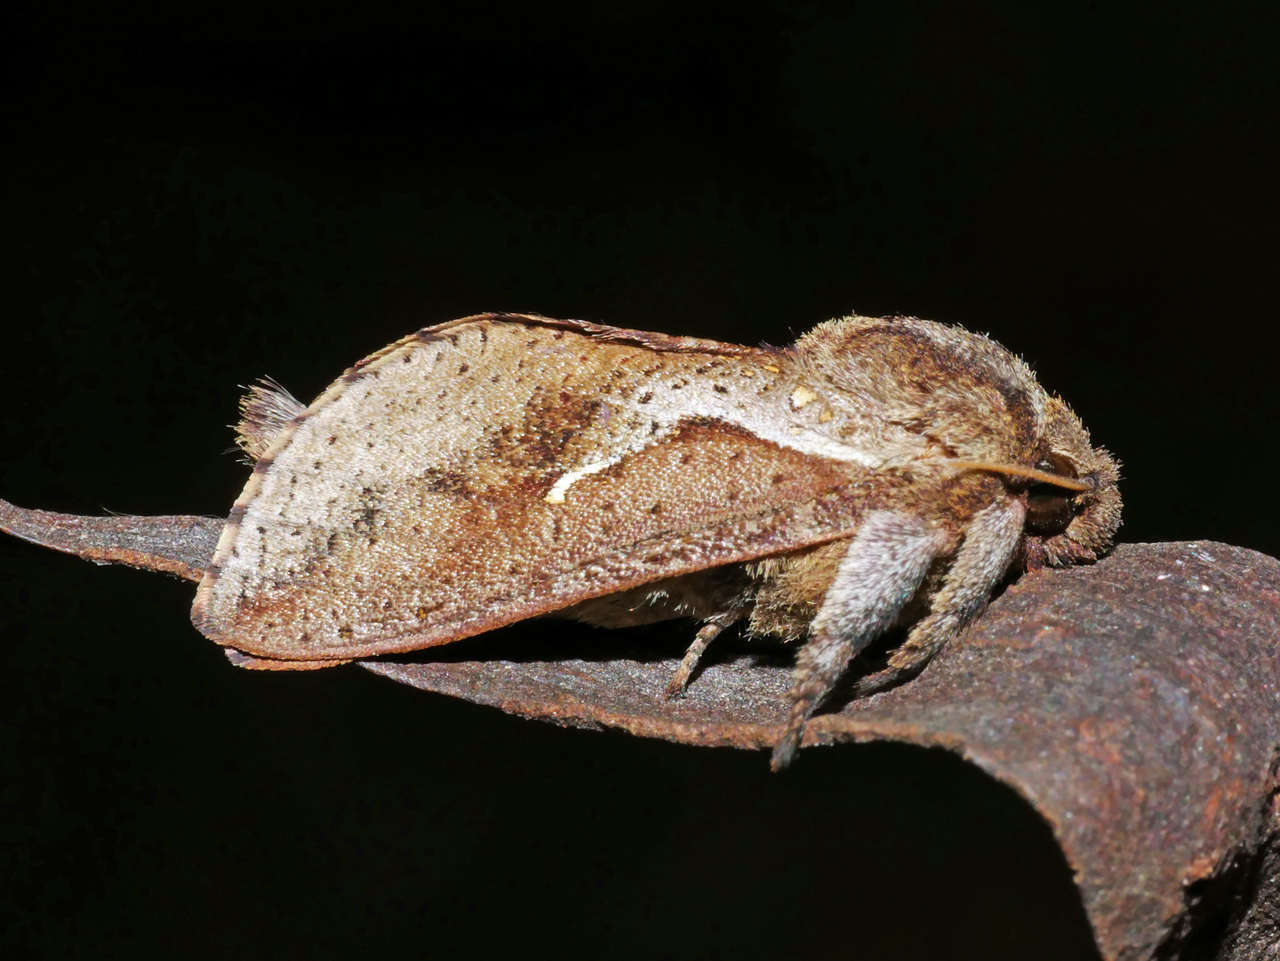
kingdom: Animalia
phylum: Arthropoda
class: Insecta
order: Lepidoptera
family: Hepialidae
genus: Elhamma
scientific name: Elhamma australasiae
